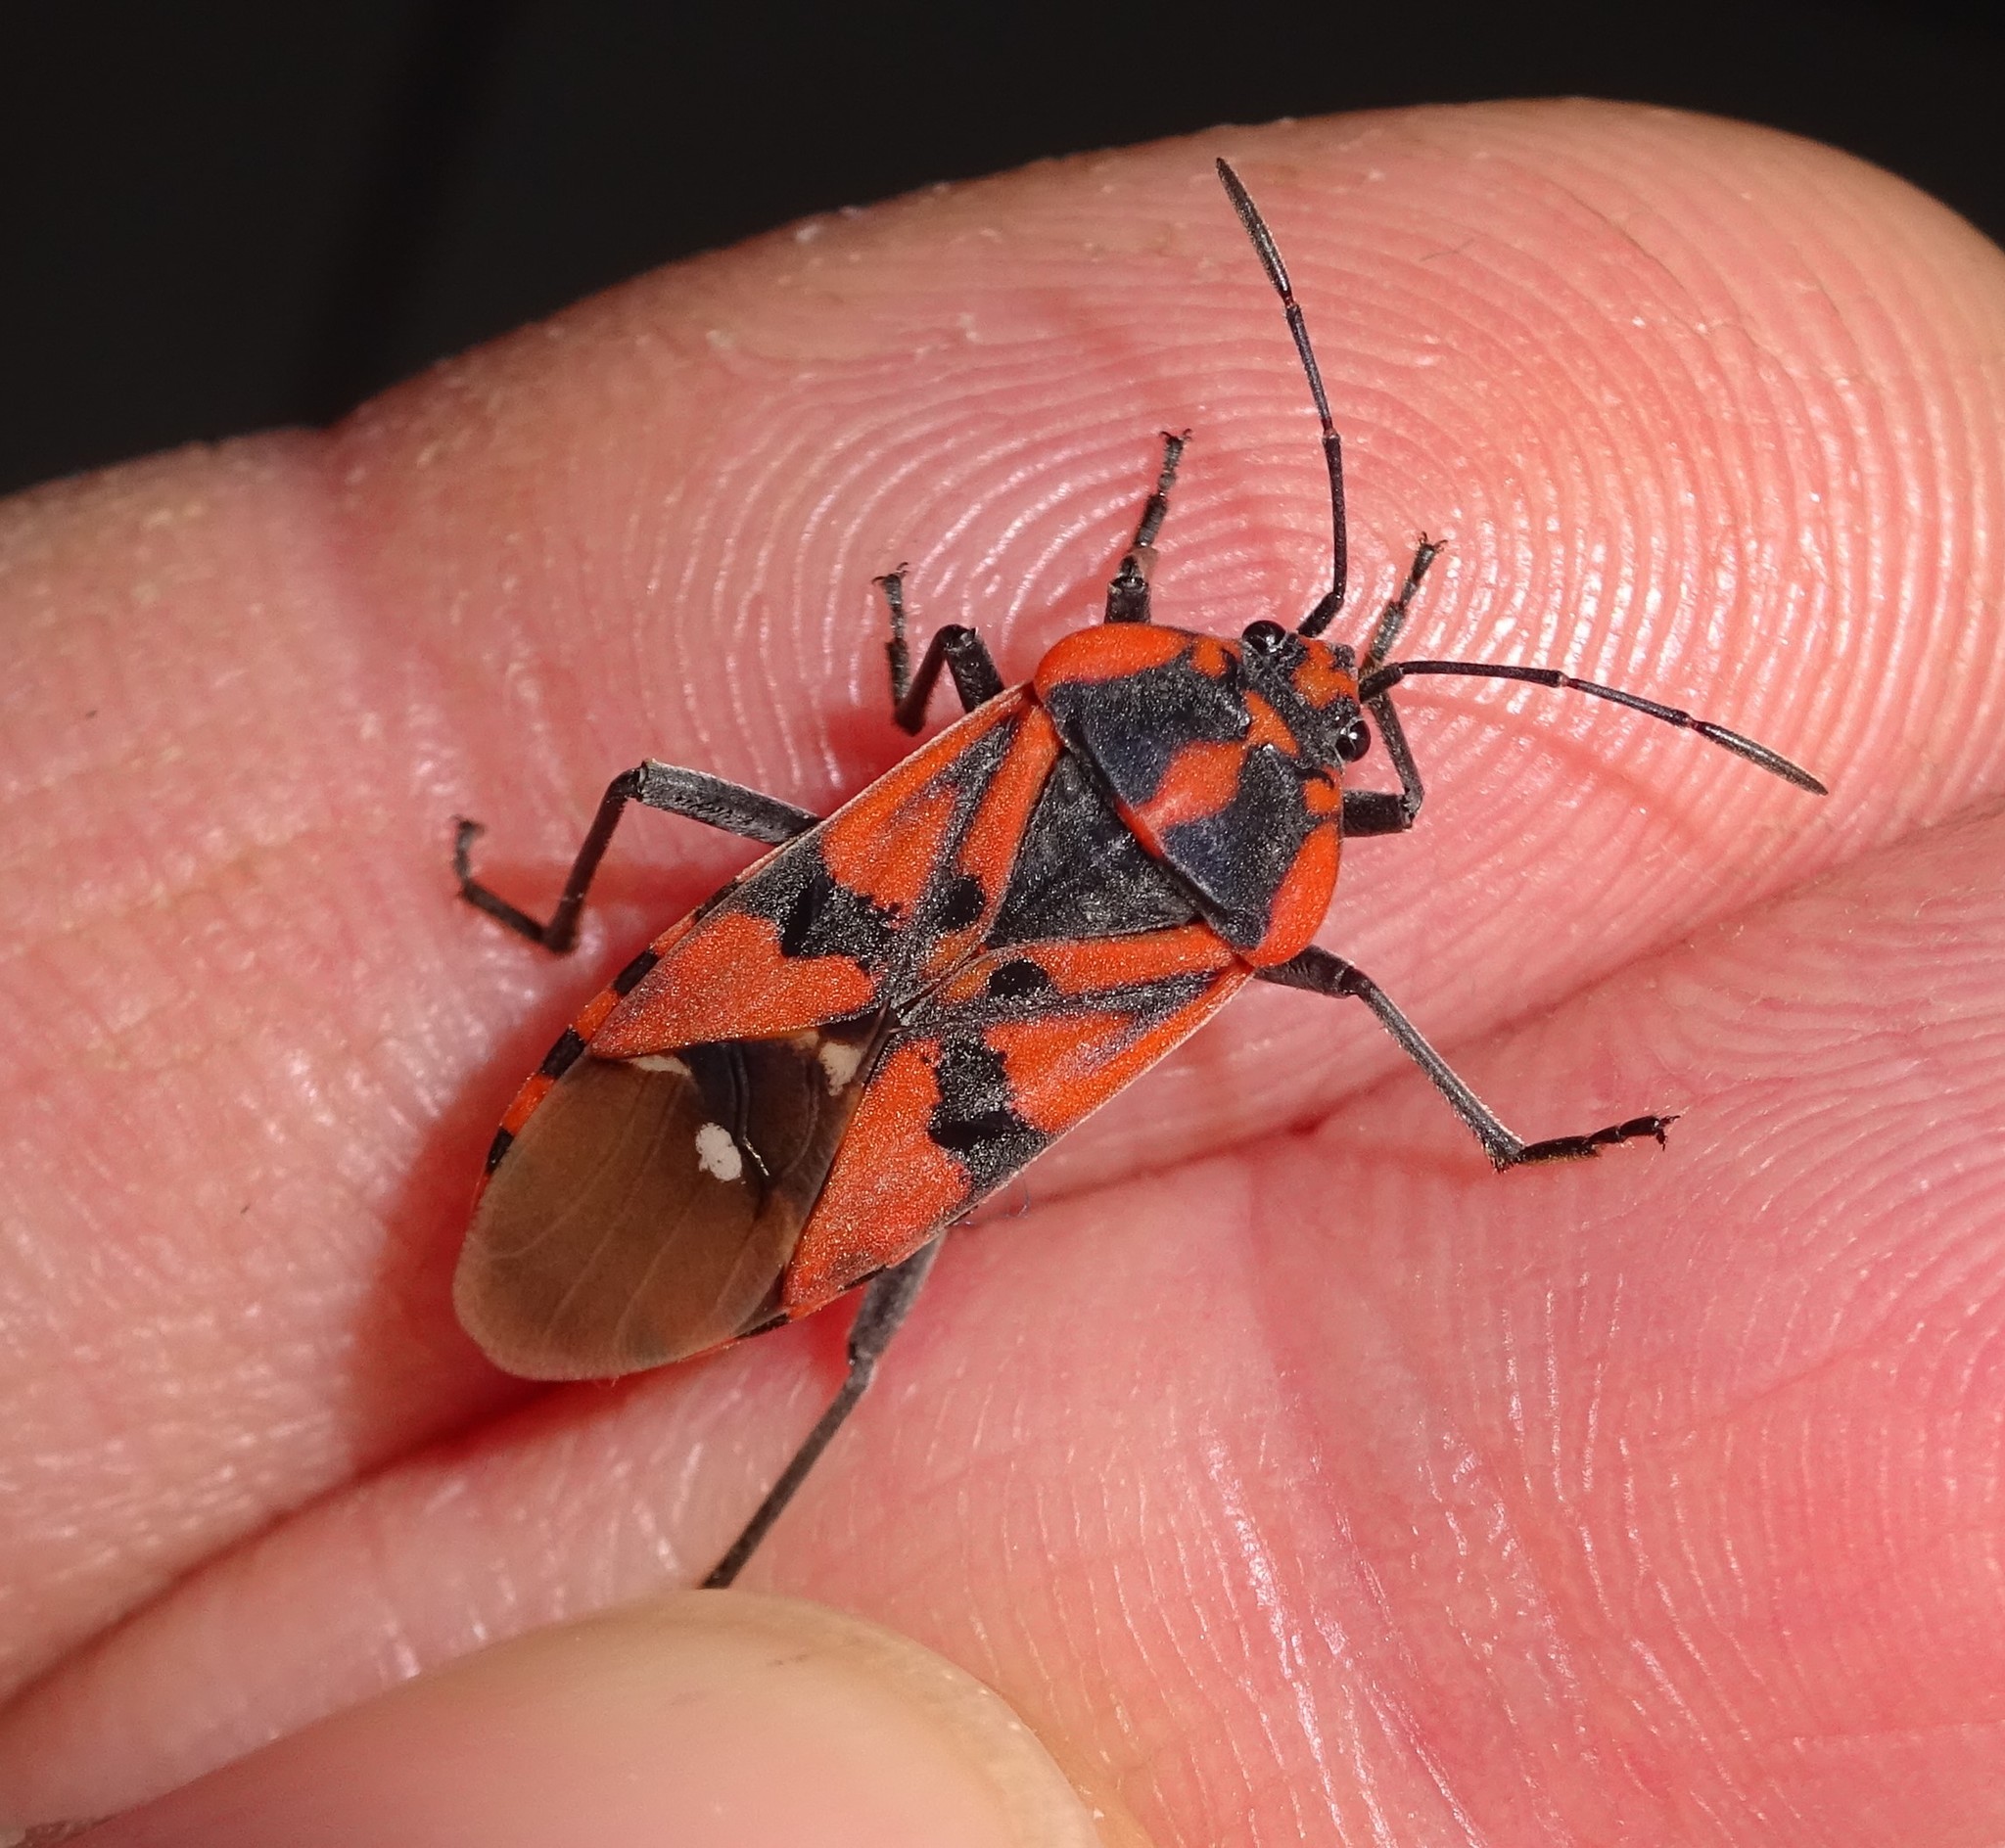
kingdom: Animalia
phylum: Arthropoda
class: Insecta
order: Hemiptera
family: Lygaeidae
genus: Spilostethus
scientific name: Spilostethus pandurus
